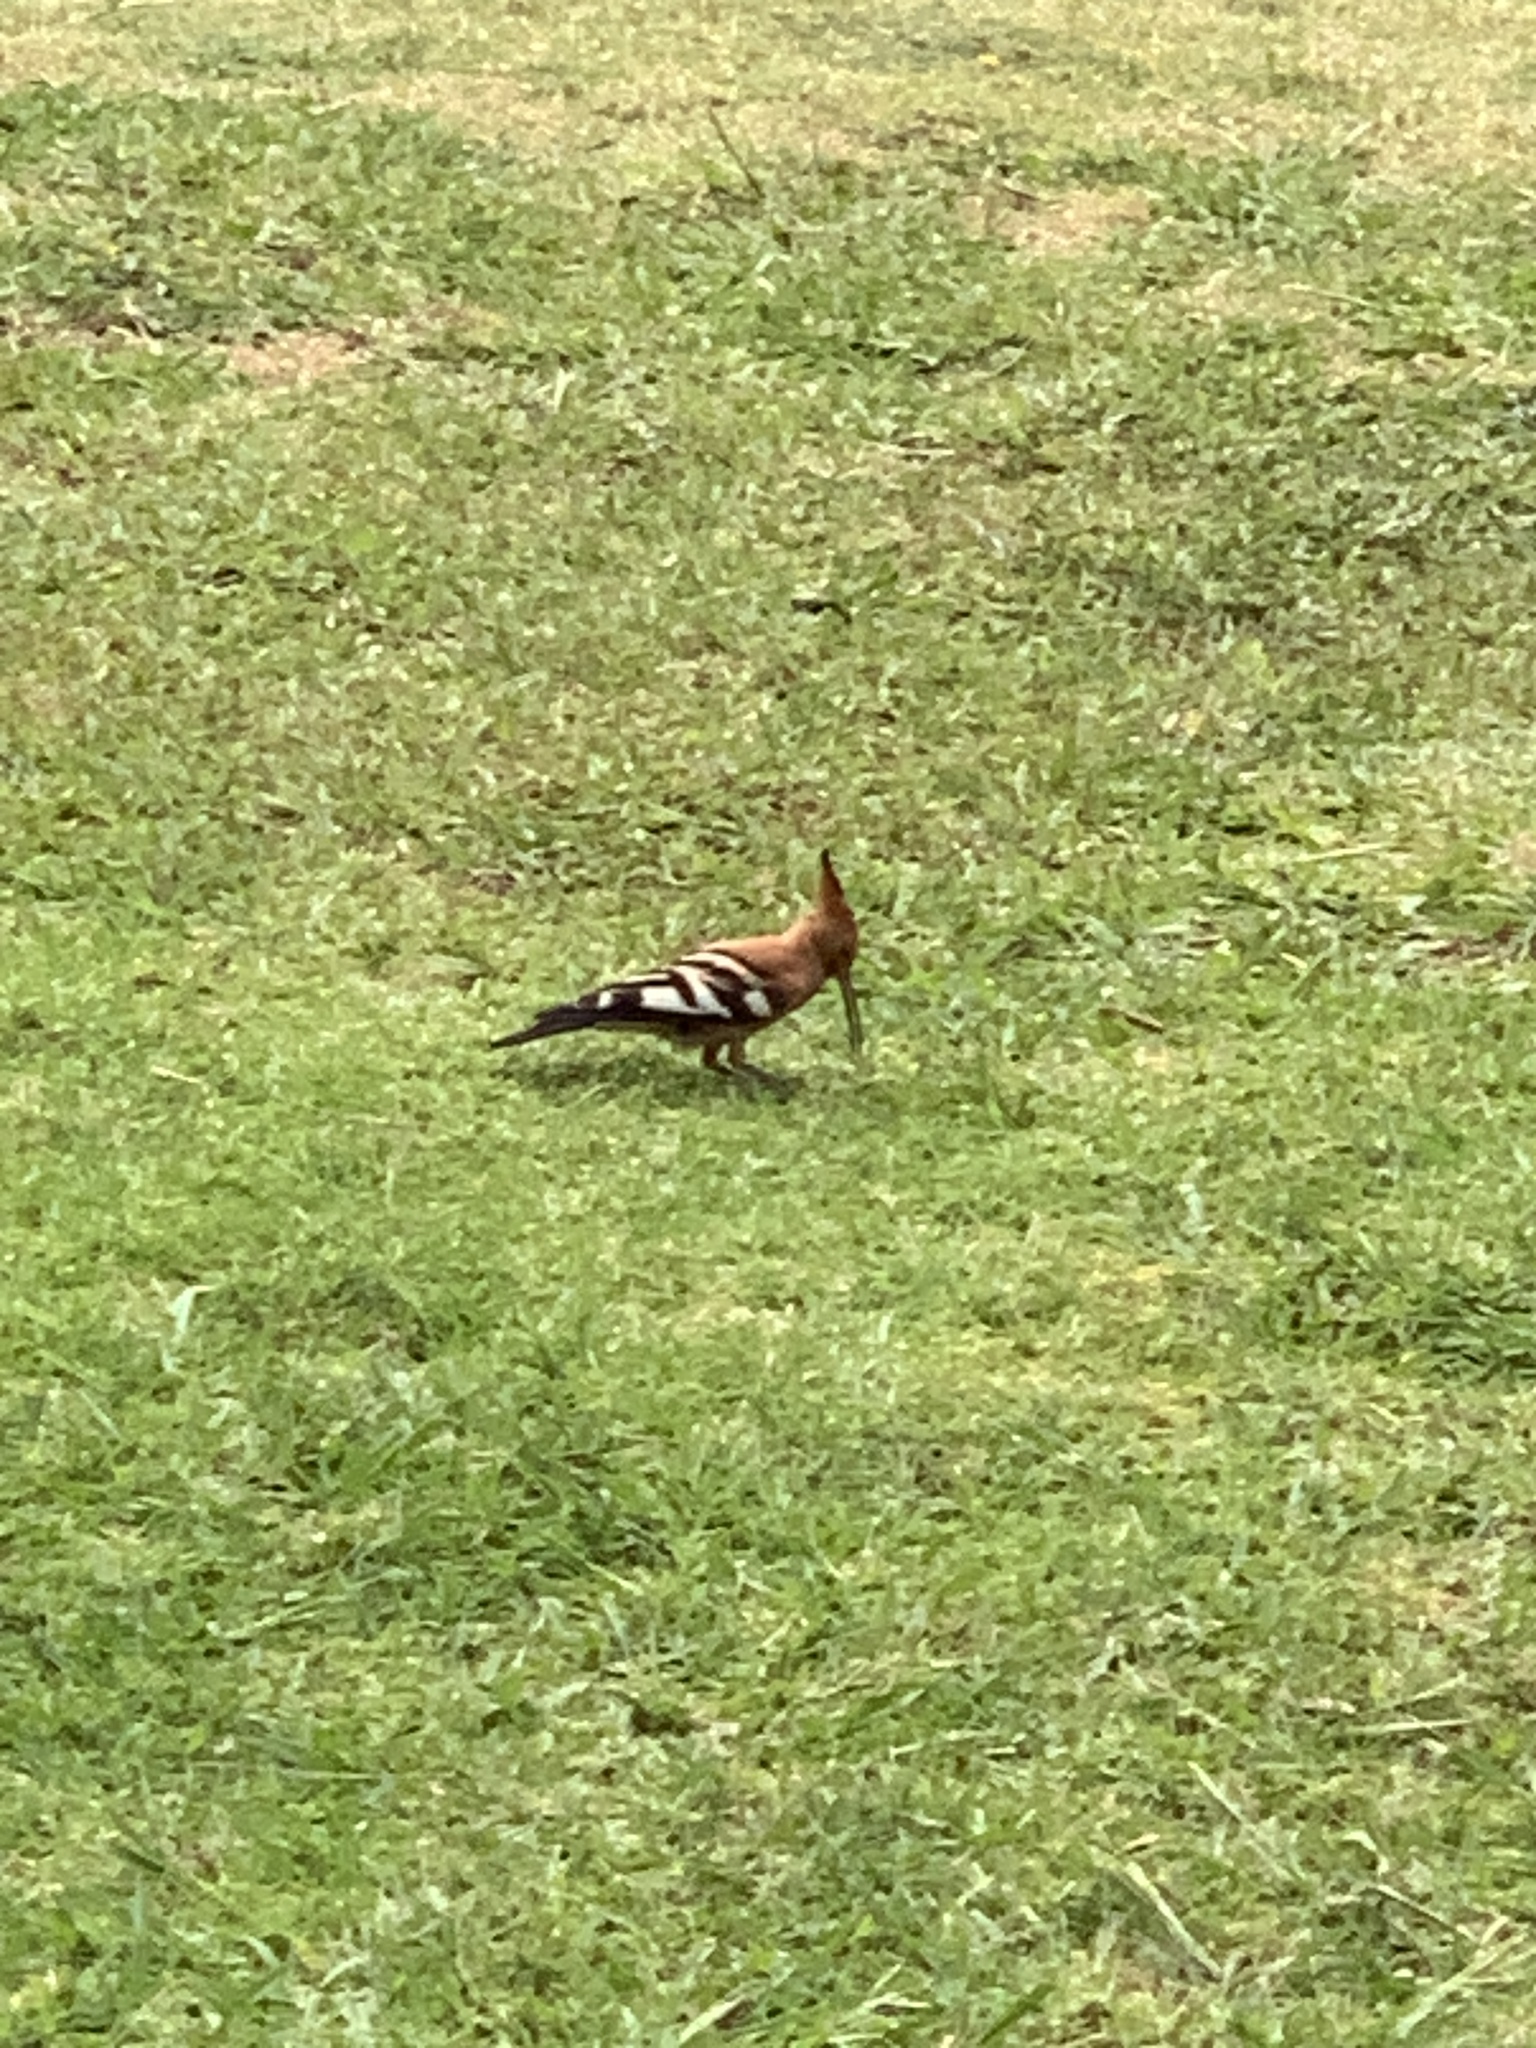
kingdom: Animalia
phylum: Chordata
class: Aves
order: Bucerotiformes
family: Upupidae
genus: Upupa
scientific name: Upupa africana
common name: African hoopoe
